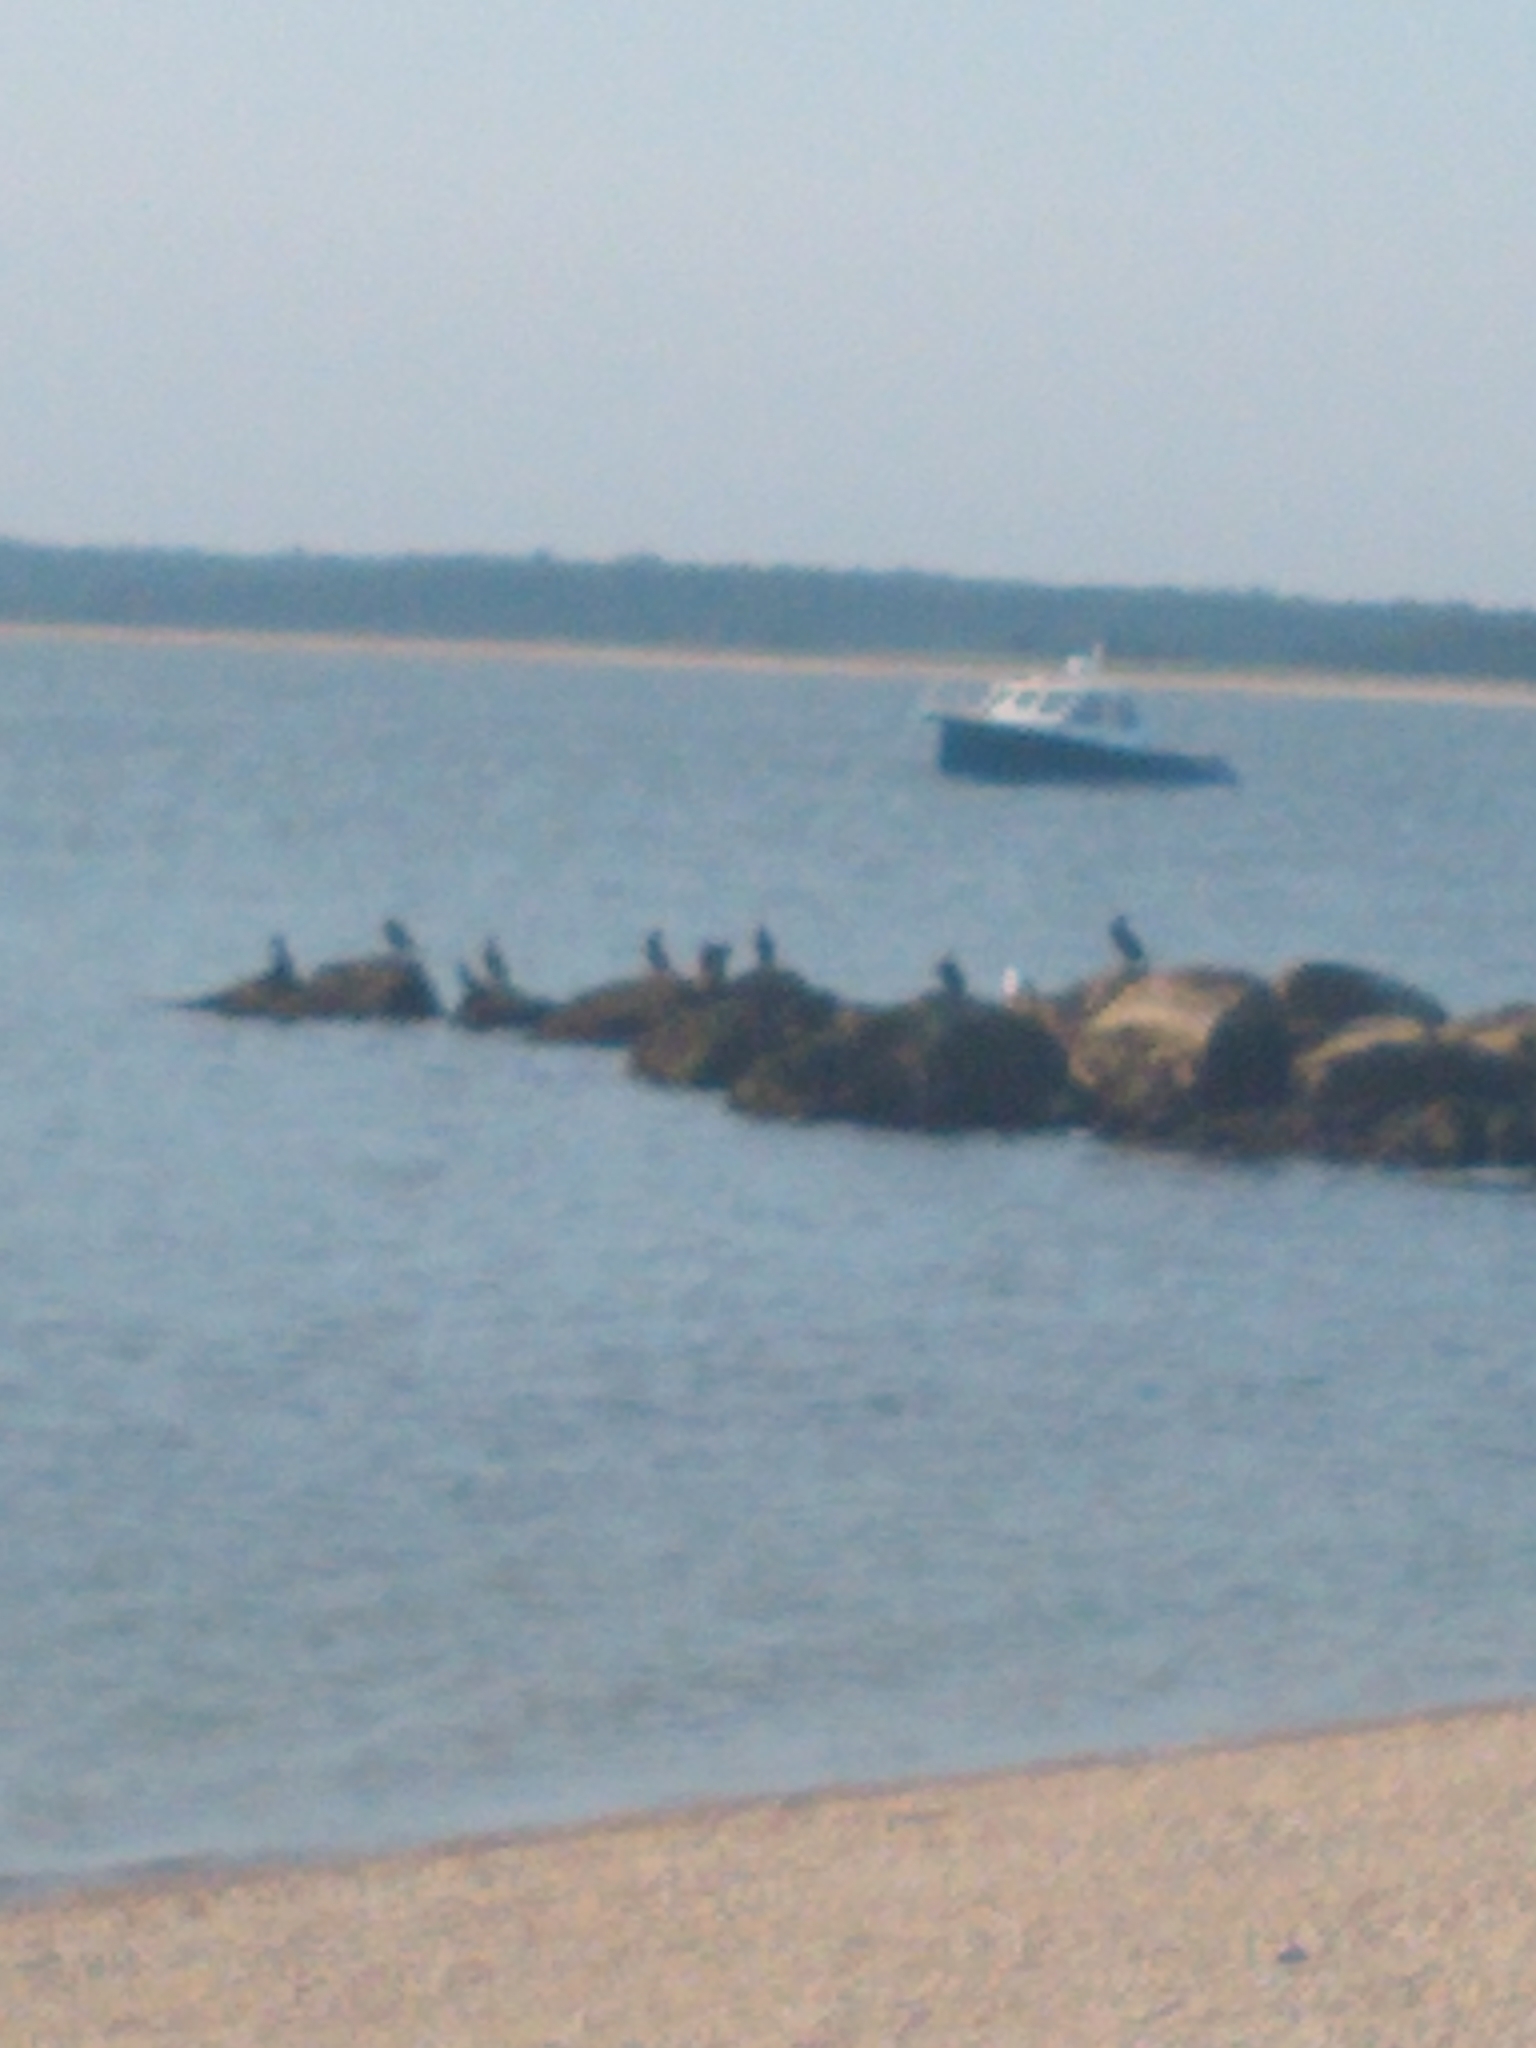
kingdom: Animalia
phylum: Chordata
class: Aves
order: Suliformes
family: Phalacrocoracidae
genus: Phalacrocorax
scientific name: Phalacrocorax auritus
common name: Double-crested cormorant
